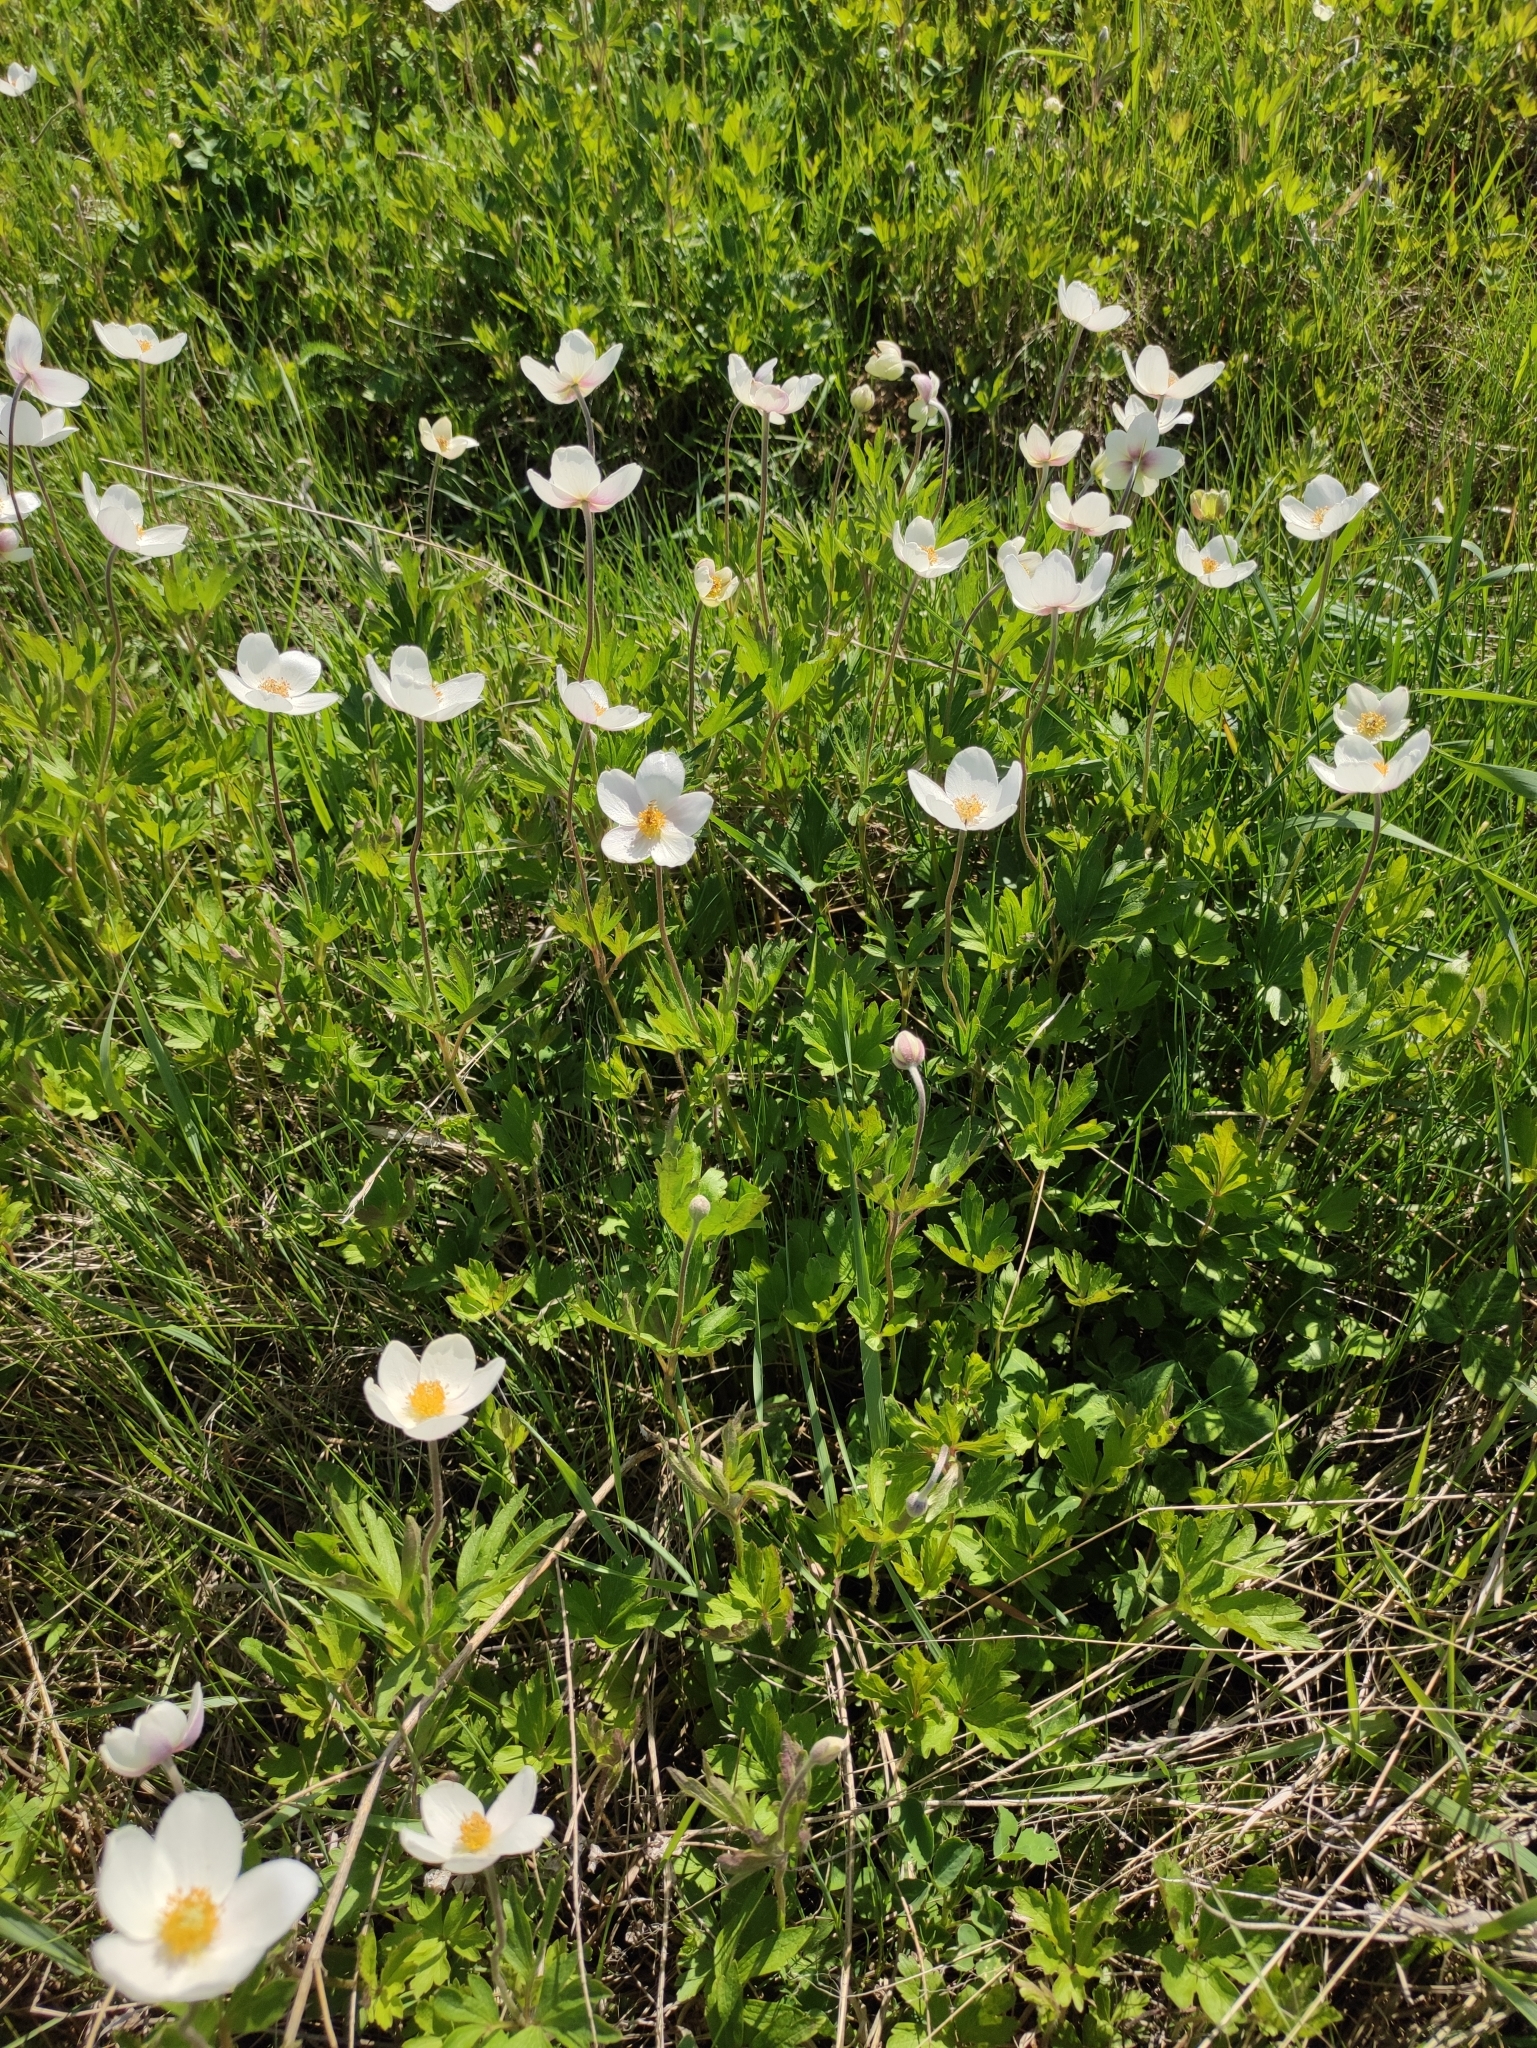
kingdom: Plantae
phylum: Tracheophyta
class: Magnoliopsida
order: Ranunculales
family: Ranunculaceae
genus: Anemone
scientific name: Anemone sylvestris
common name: Snowdrop anemone
